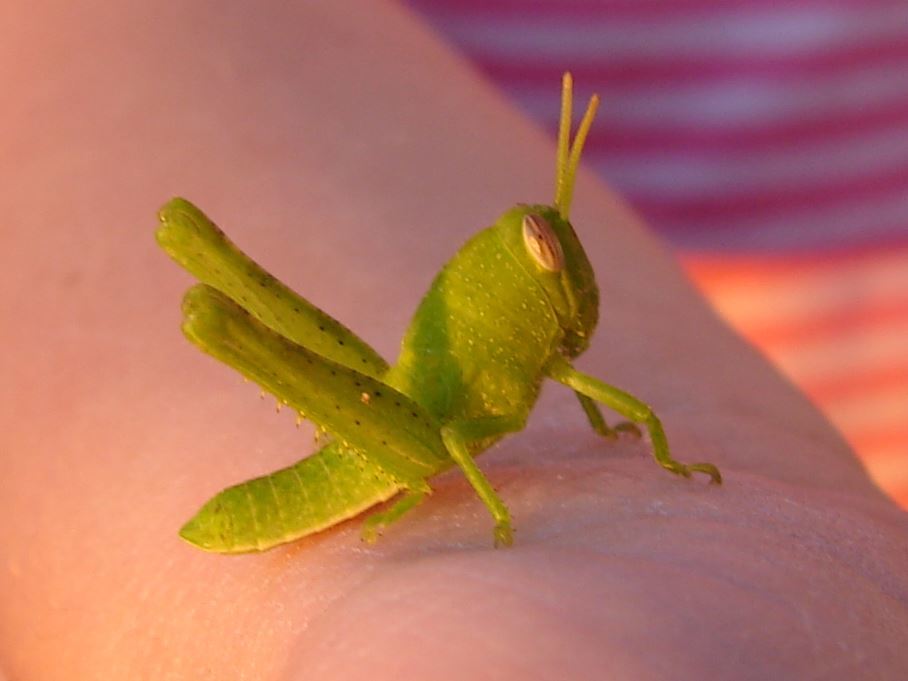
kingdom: Animalia
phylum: Arthropoda
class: Insecta
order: Orthoptera
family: Acrididae
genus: Schistocerca
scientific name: Schistocerca nitens
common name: Vagrant grasshopper
